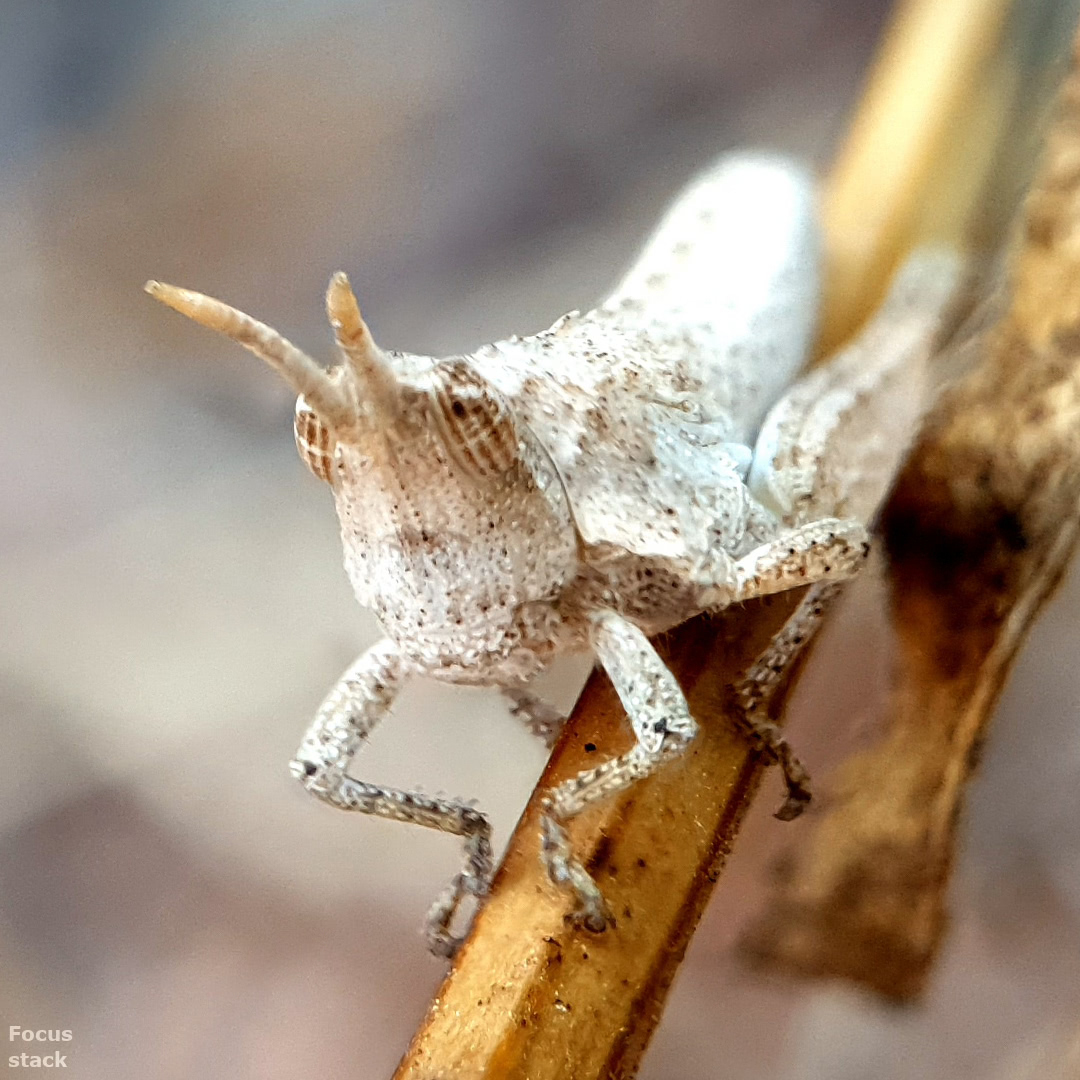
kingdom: Animalia
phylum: Arthropoda
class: Insecta
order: Orthoptera
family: Pyrgomorphidae
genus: Pyrgomorpha
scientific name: Pyrgomorpha conica
